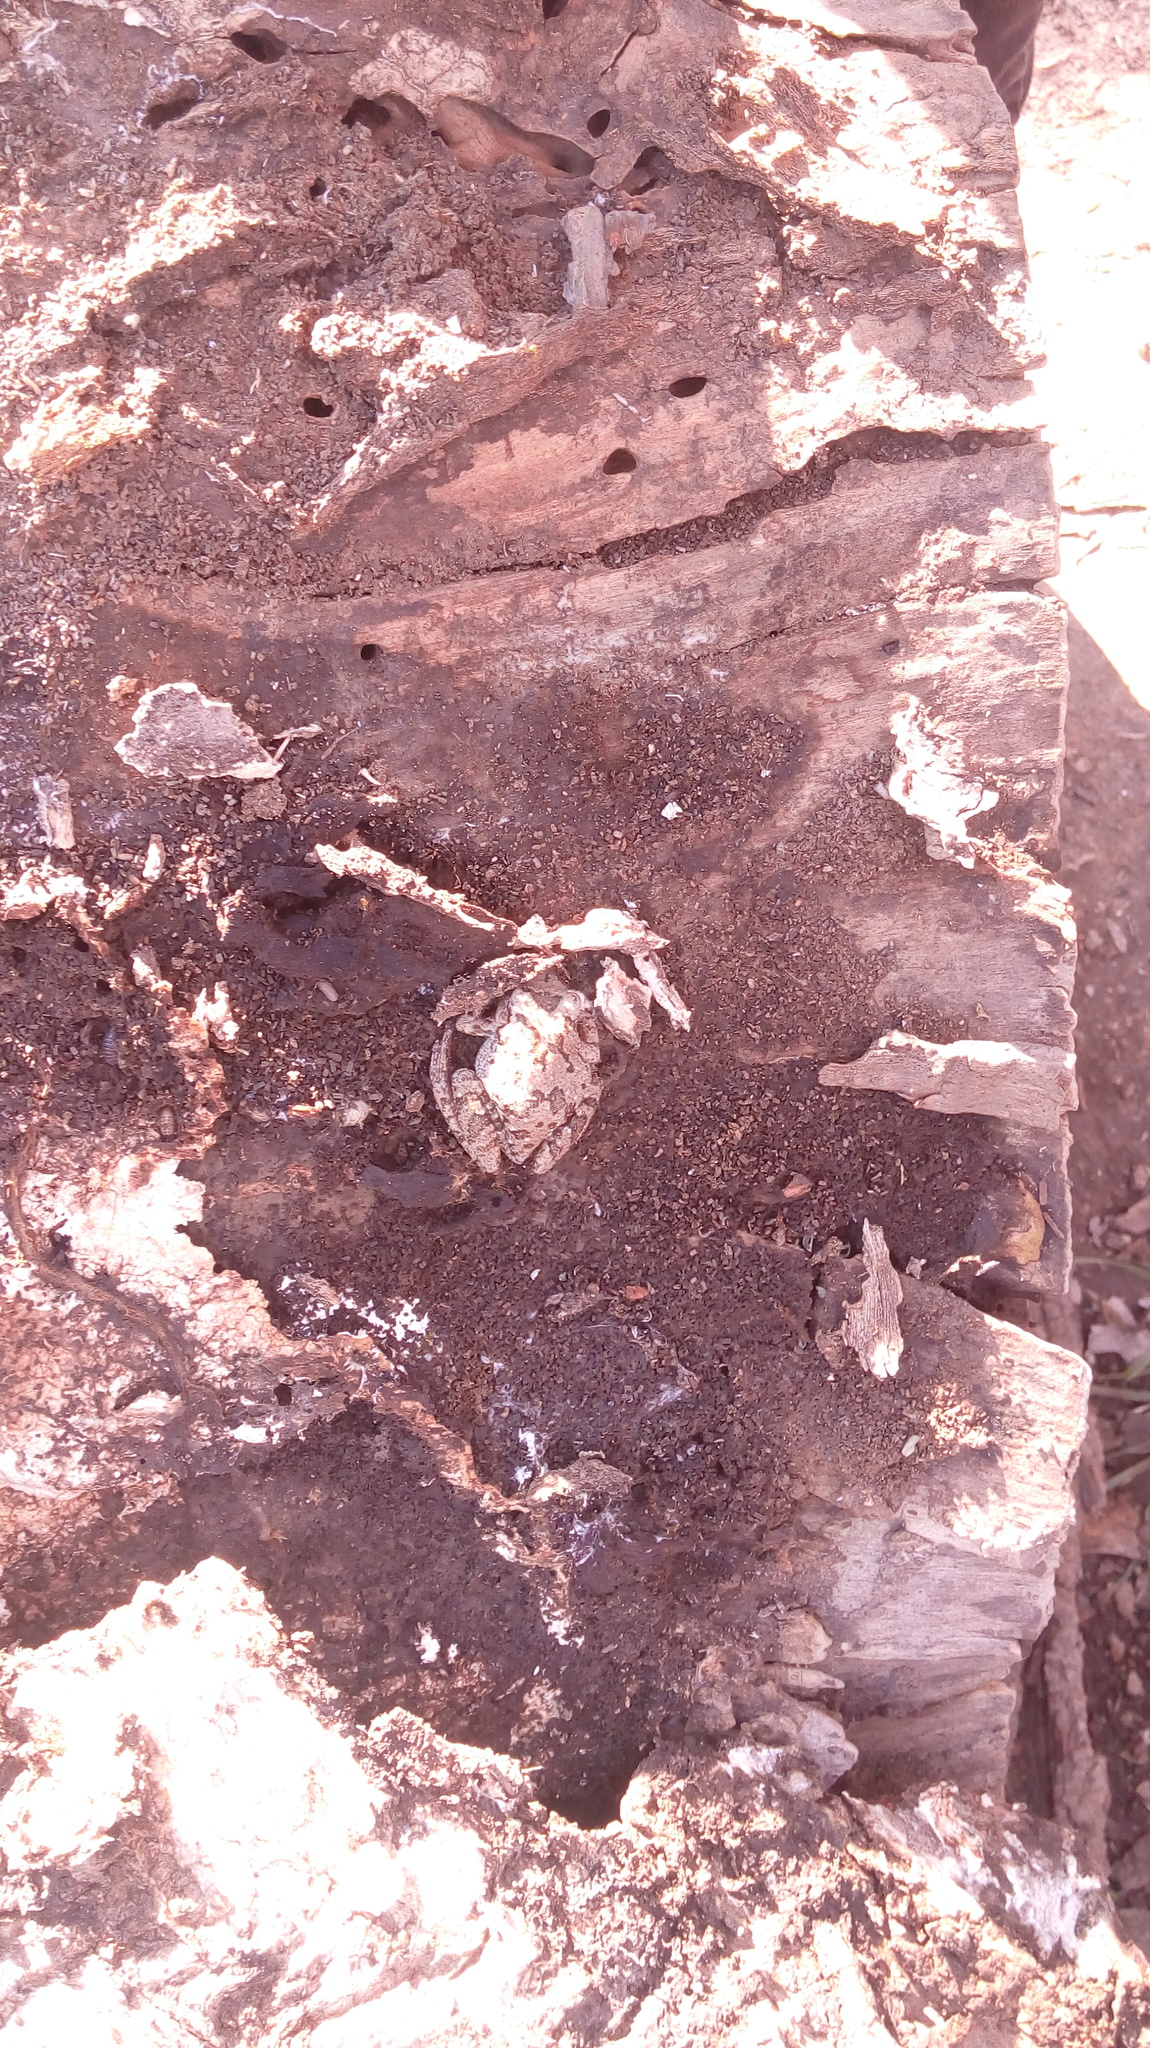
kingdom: Animalia
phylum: Chordata
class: Amphibia
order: Anura
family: Hylidae
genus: Scinax
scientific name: Scinax granulatus
